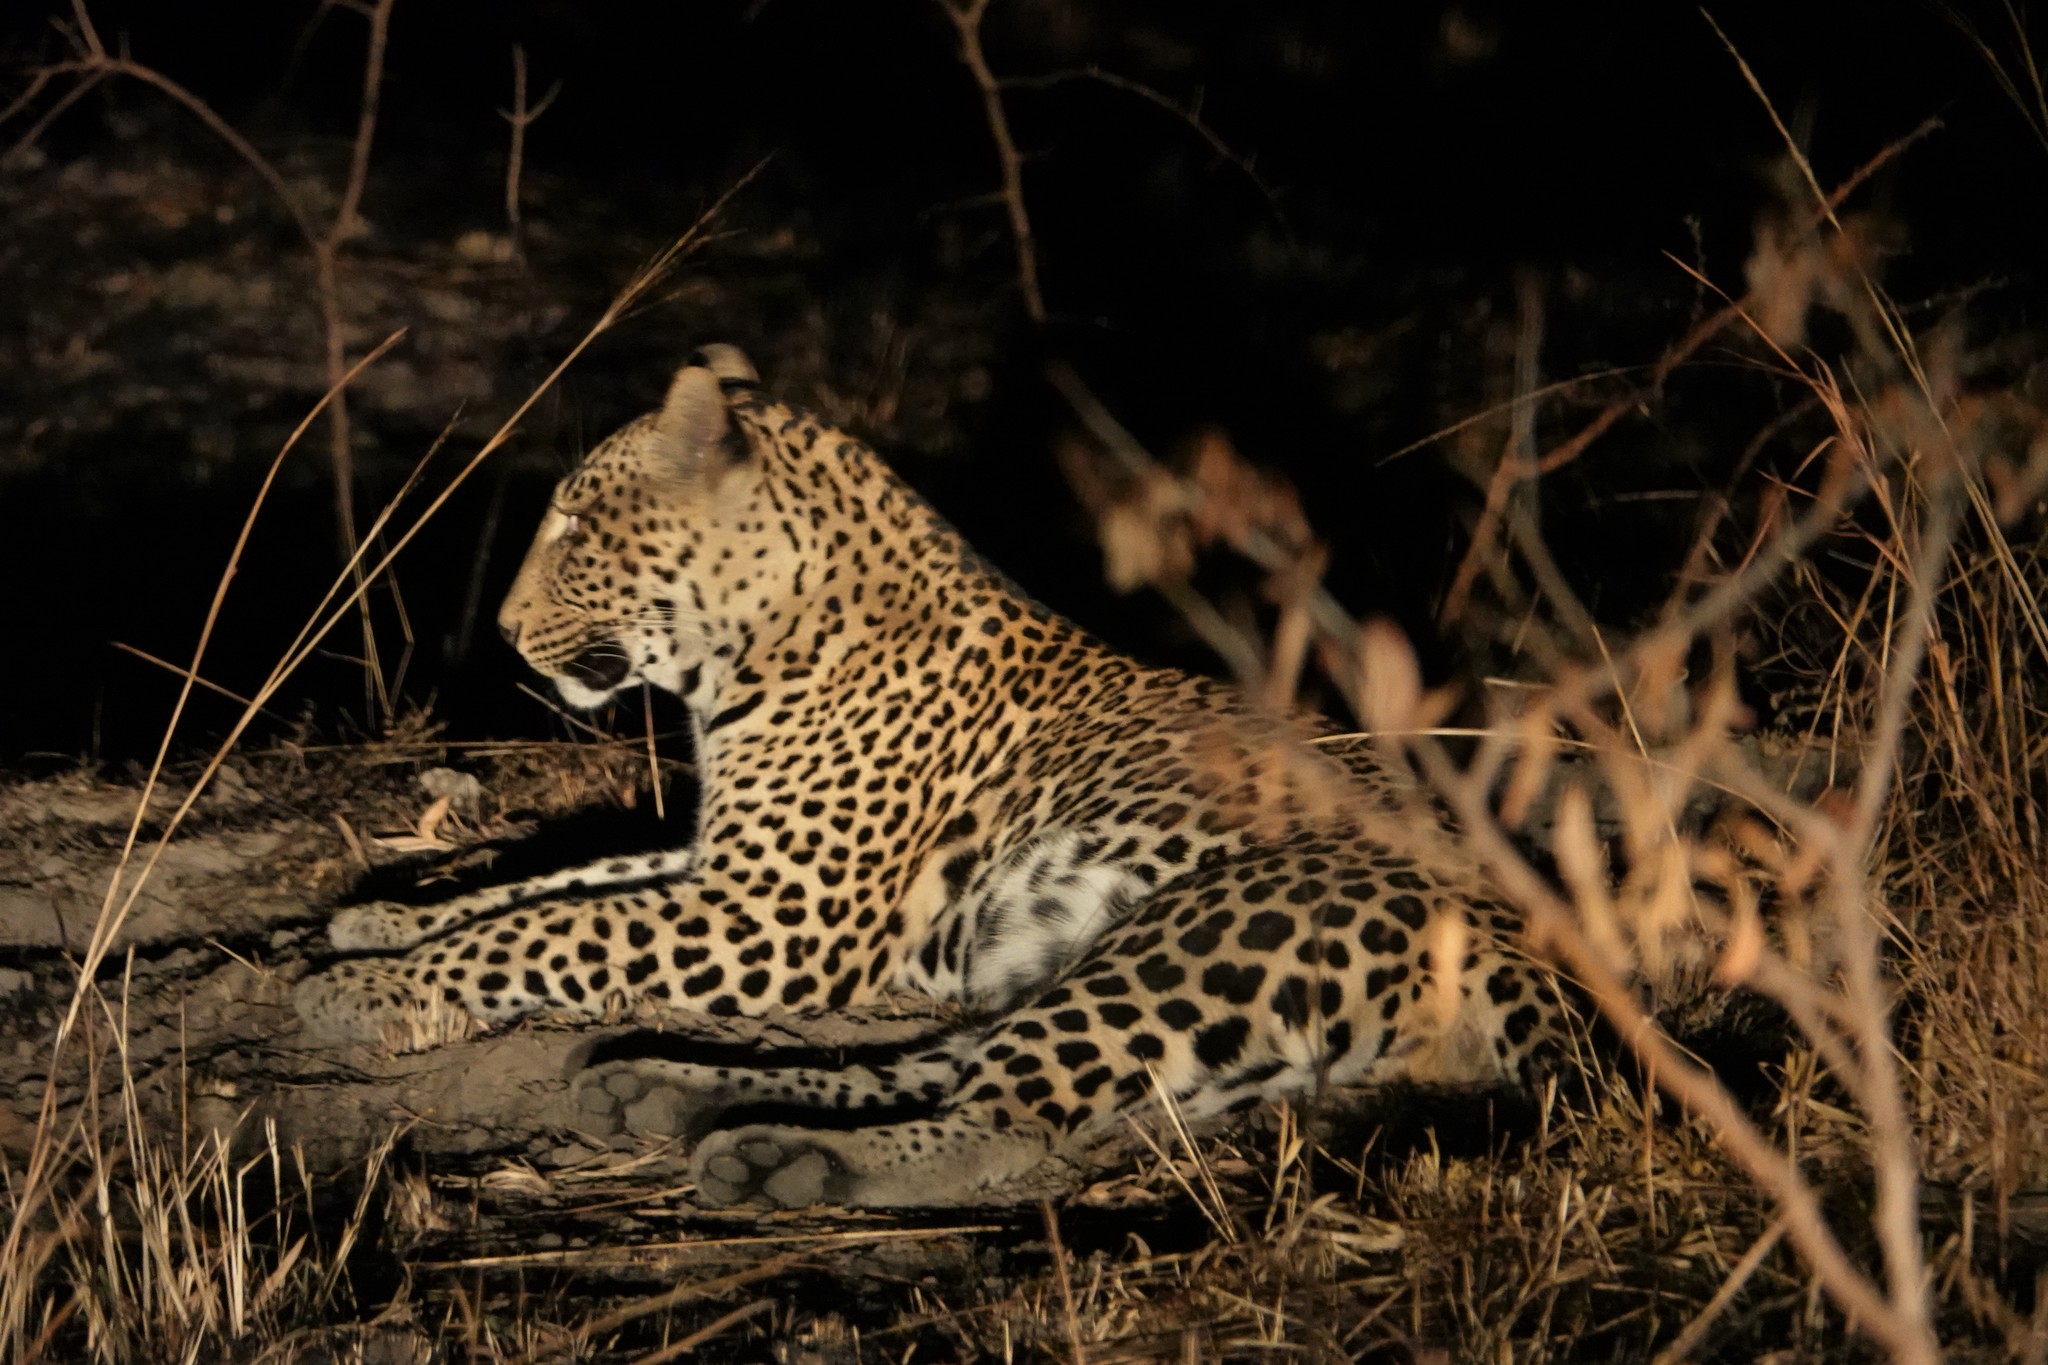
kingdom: Animalia
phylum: Chordata
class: Mammalia
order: Carnivora
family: Felidae
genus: Panthera
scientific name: Panthera pardus
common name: Leopard
